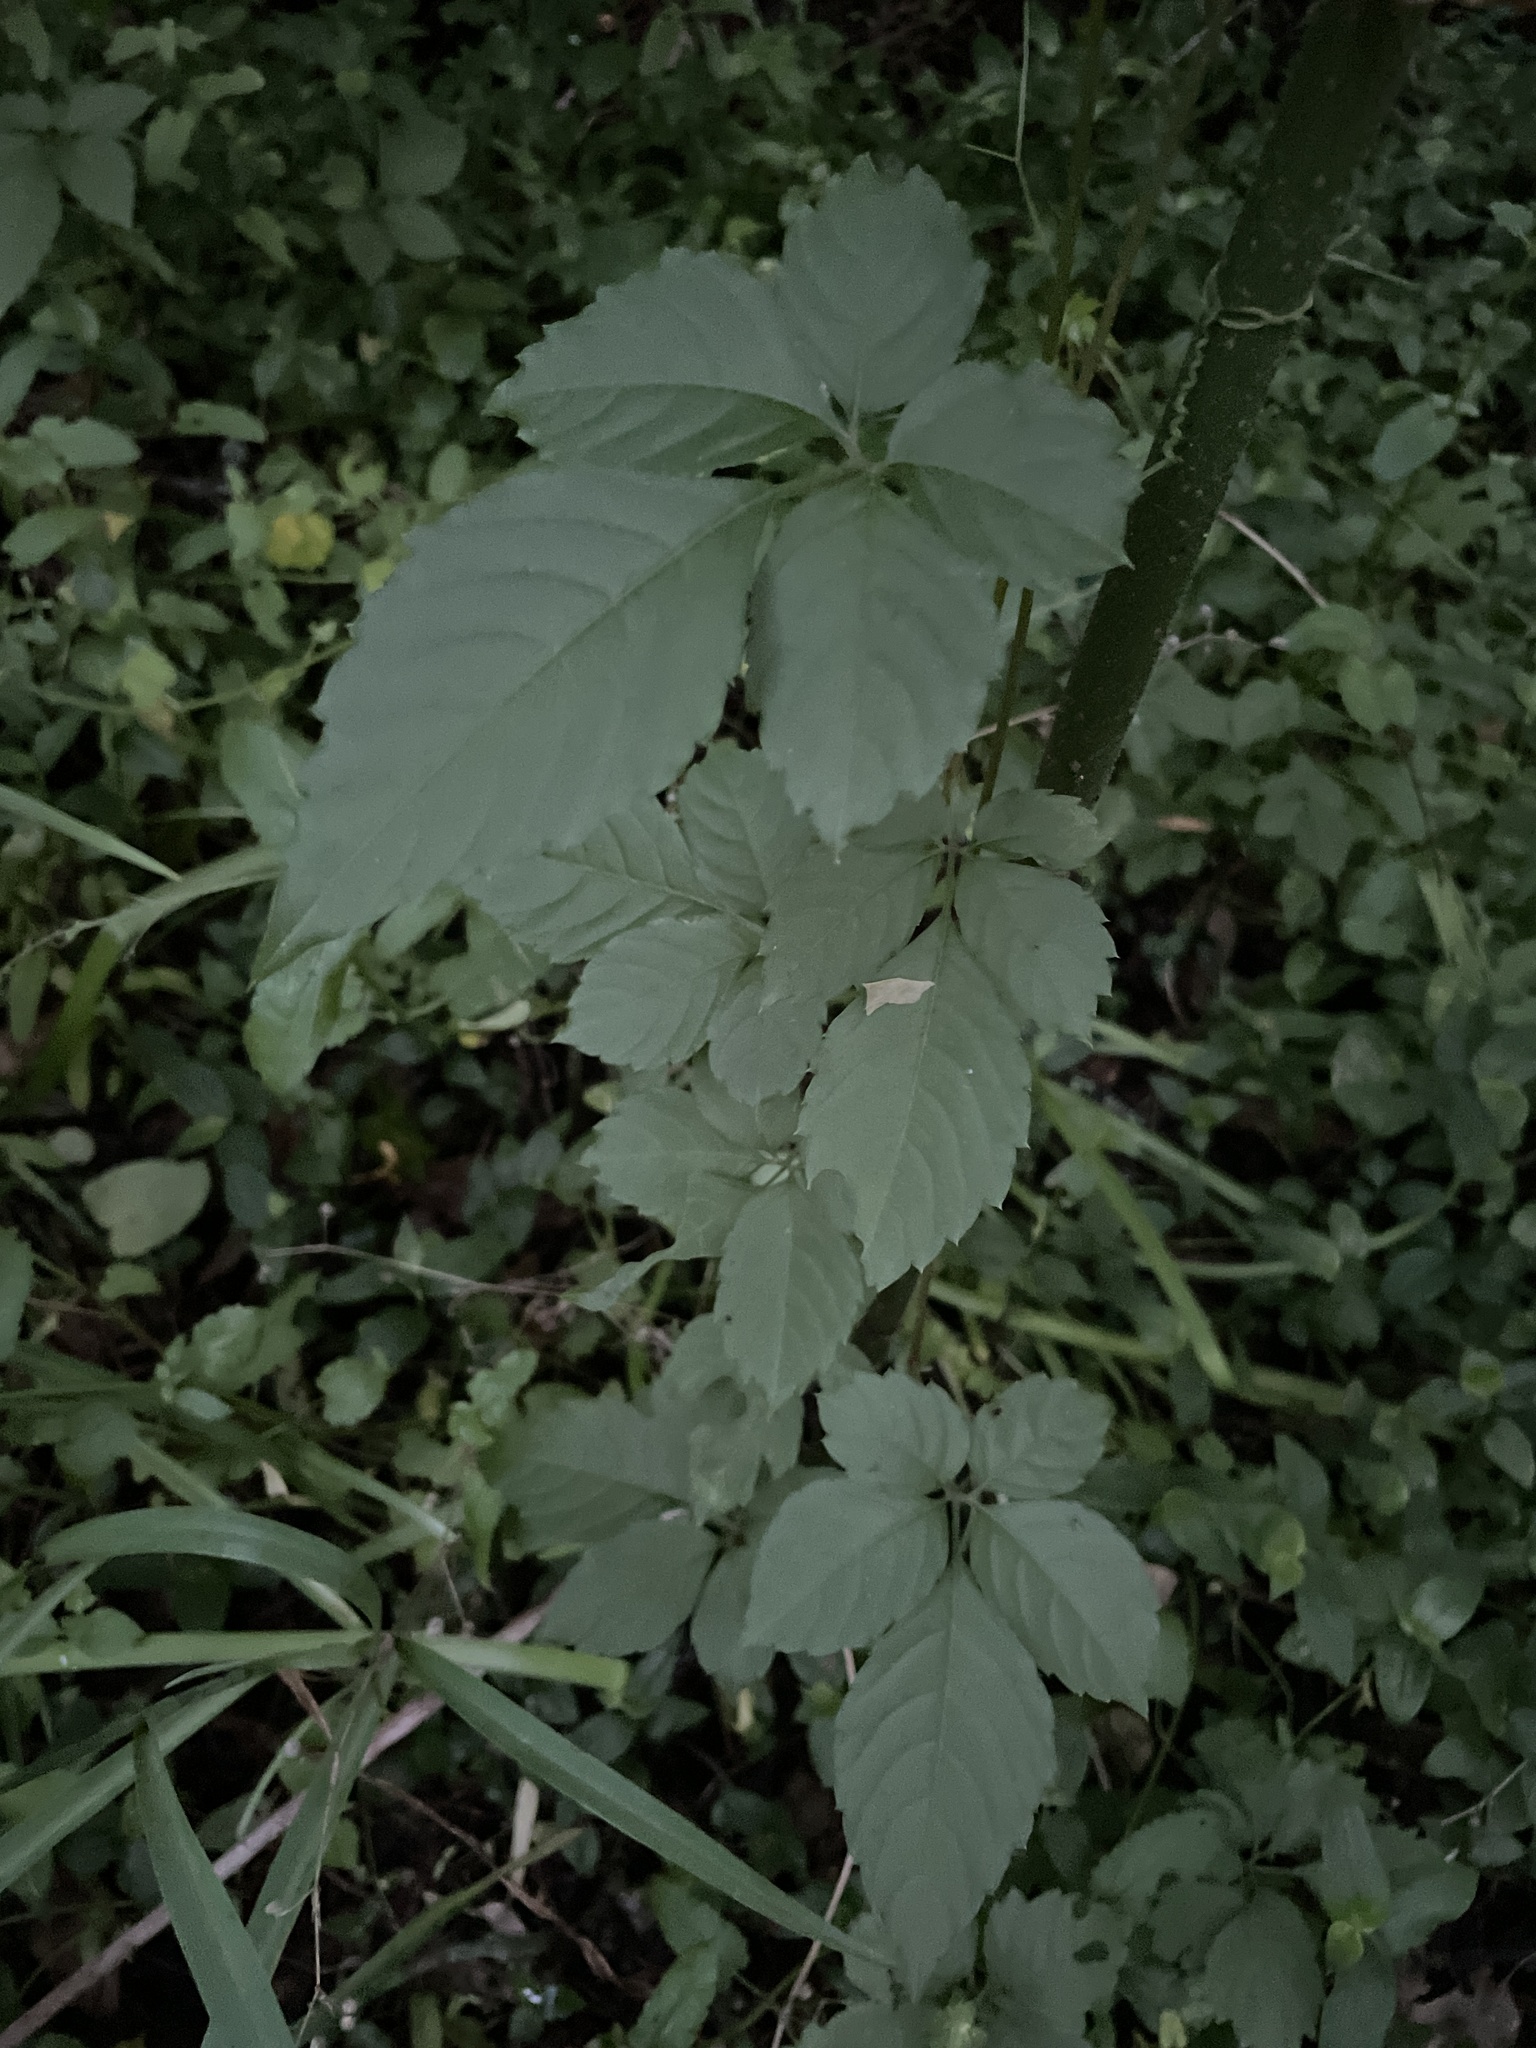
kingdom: Plantae
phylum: Tracheophyta
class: Magnoliopsida
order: Vitales
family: Vitaceae
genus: Causonis
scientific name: Causonis japonica
